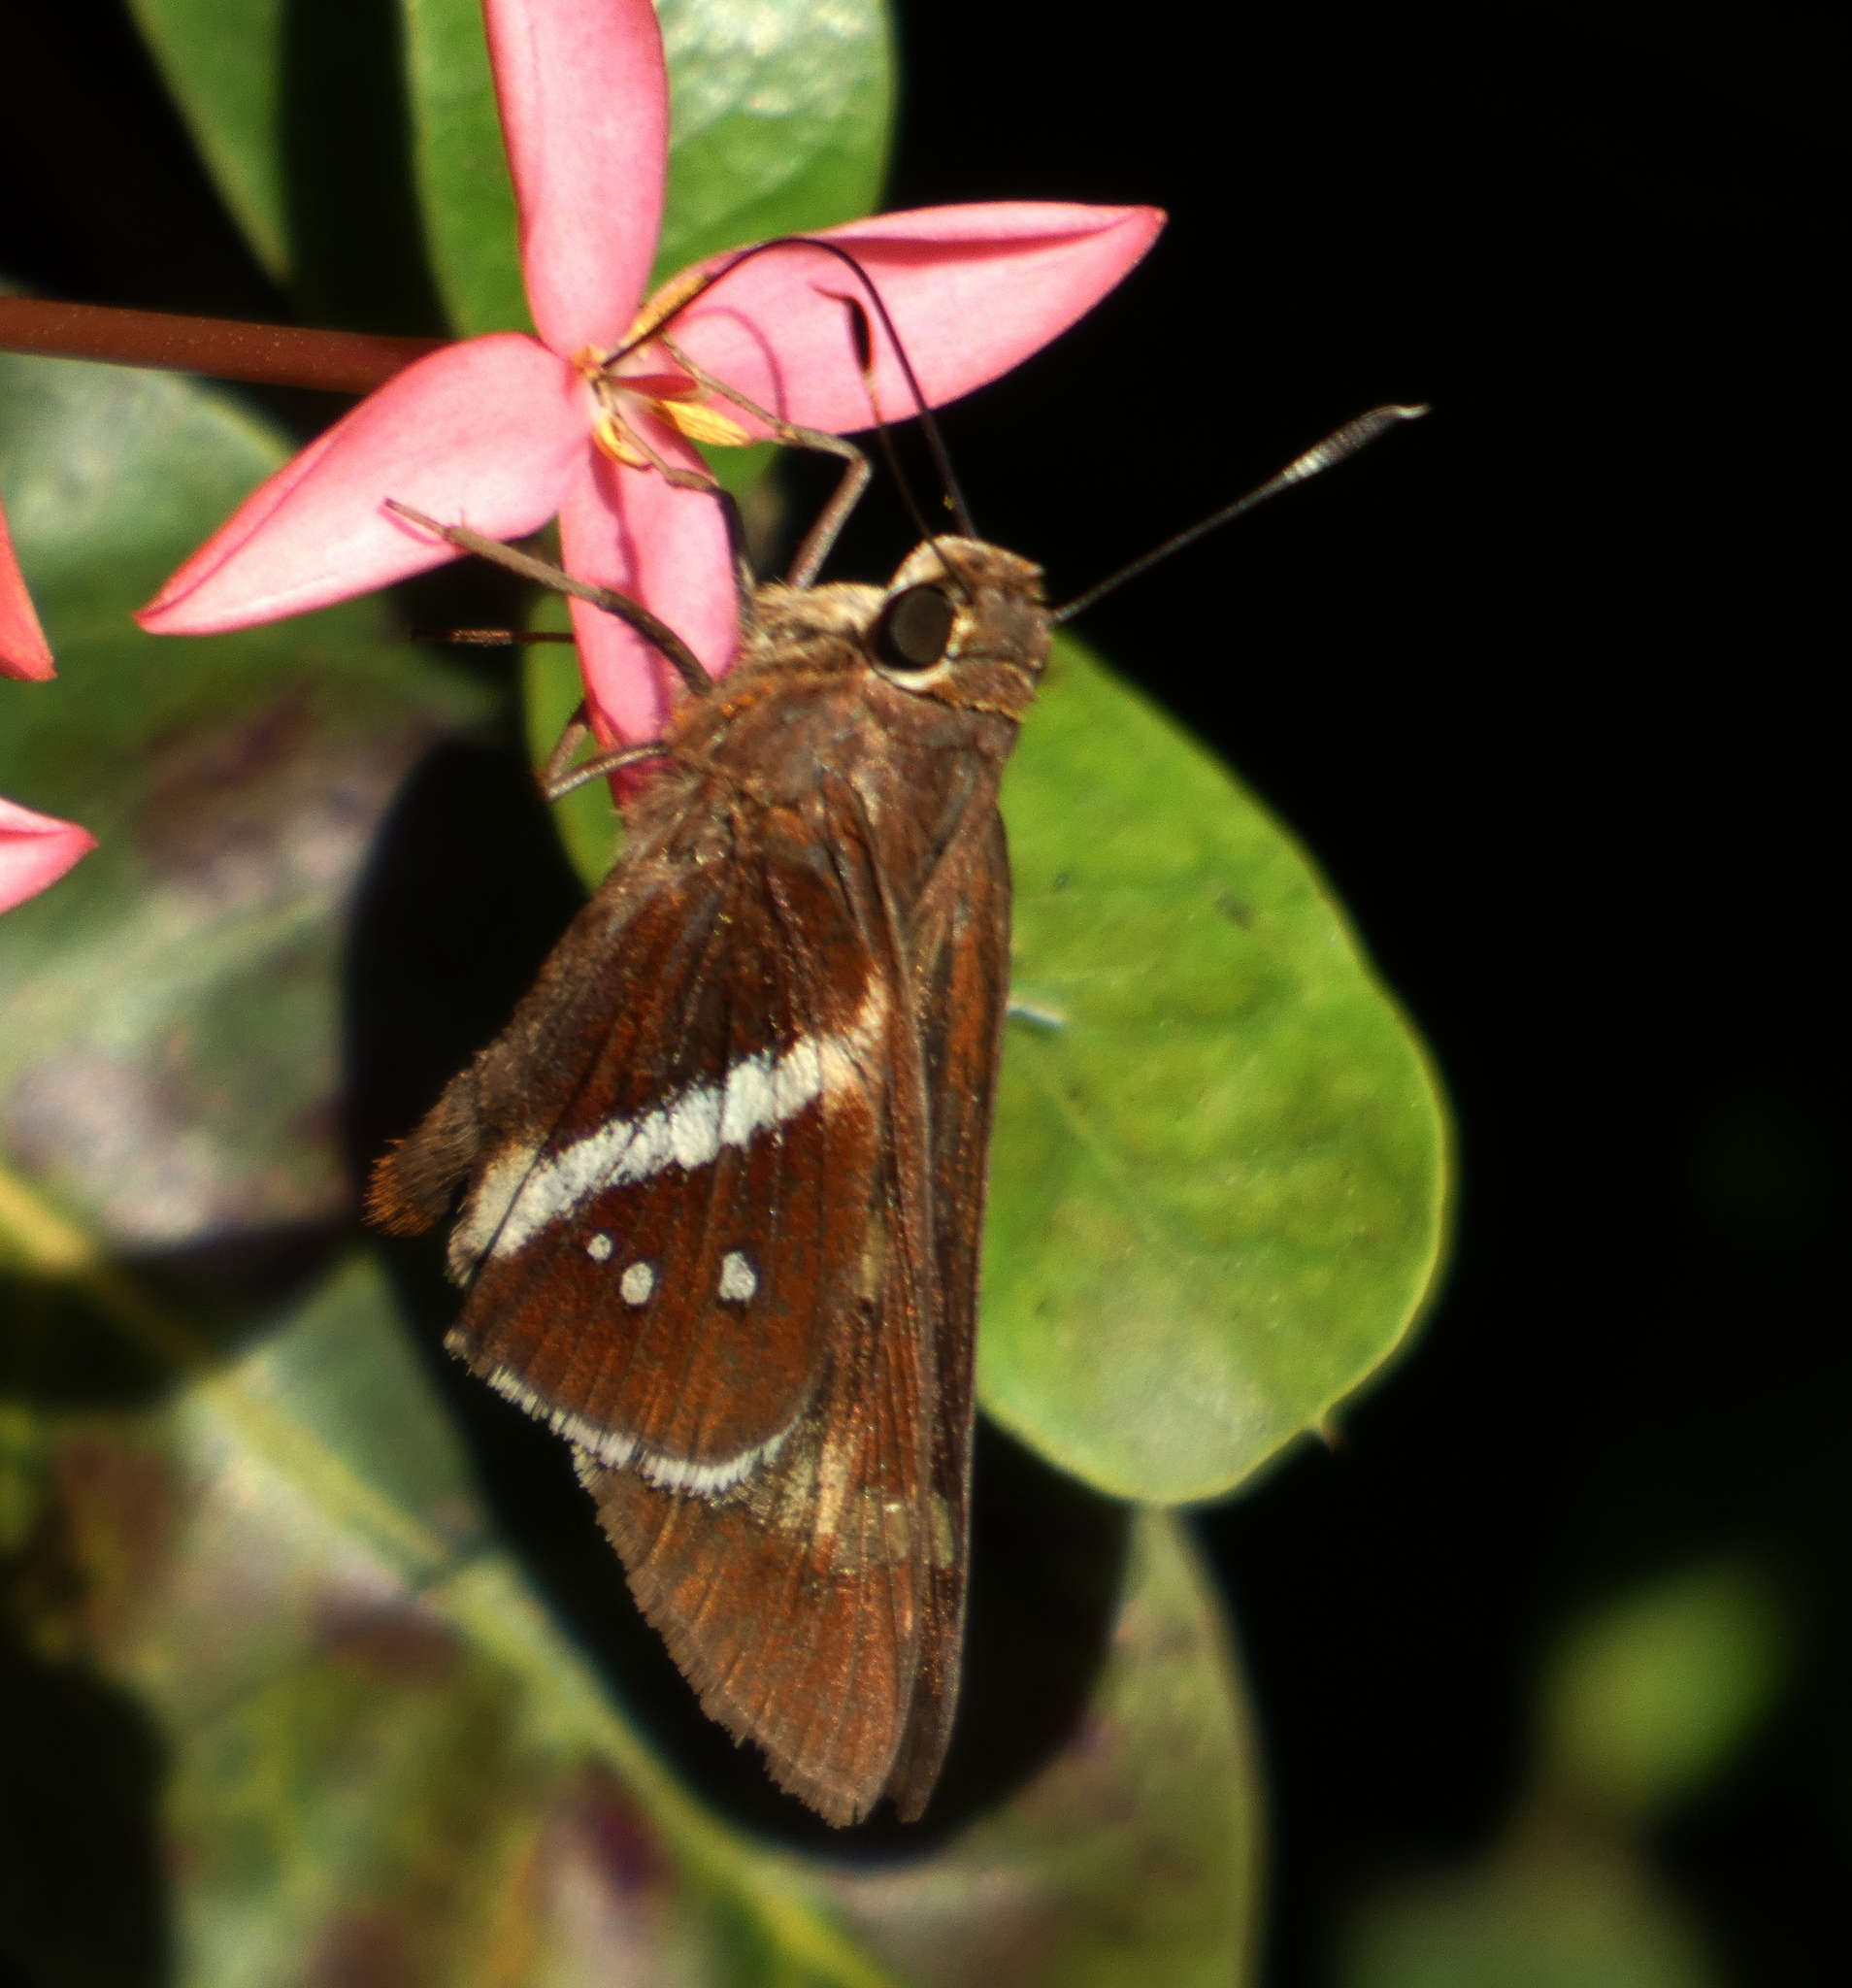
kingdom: Animalia
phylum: Arthropoda
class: Insecta
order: Lepidoptera
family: Hesperiidae
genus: Xeniades
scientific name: Xeniades chalestra
